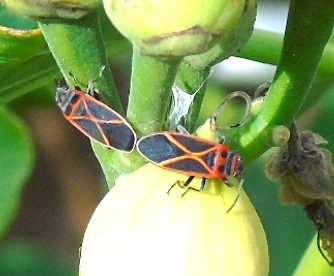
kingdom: Animalia
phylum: Arthropoda
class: Insecta
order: Hemiptera
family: Lygaeidae
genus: Ochrostomus
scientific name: Ochrostomus uhleri
